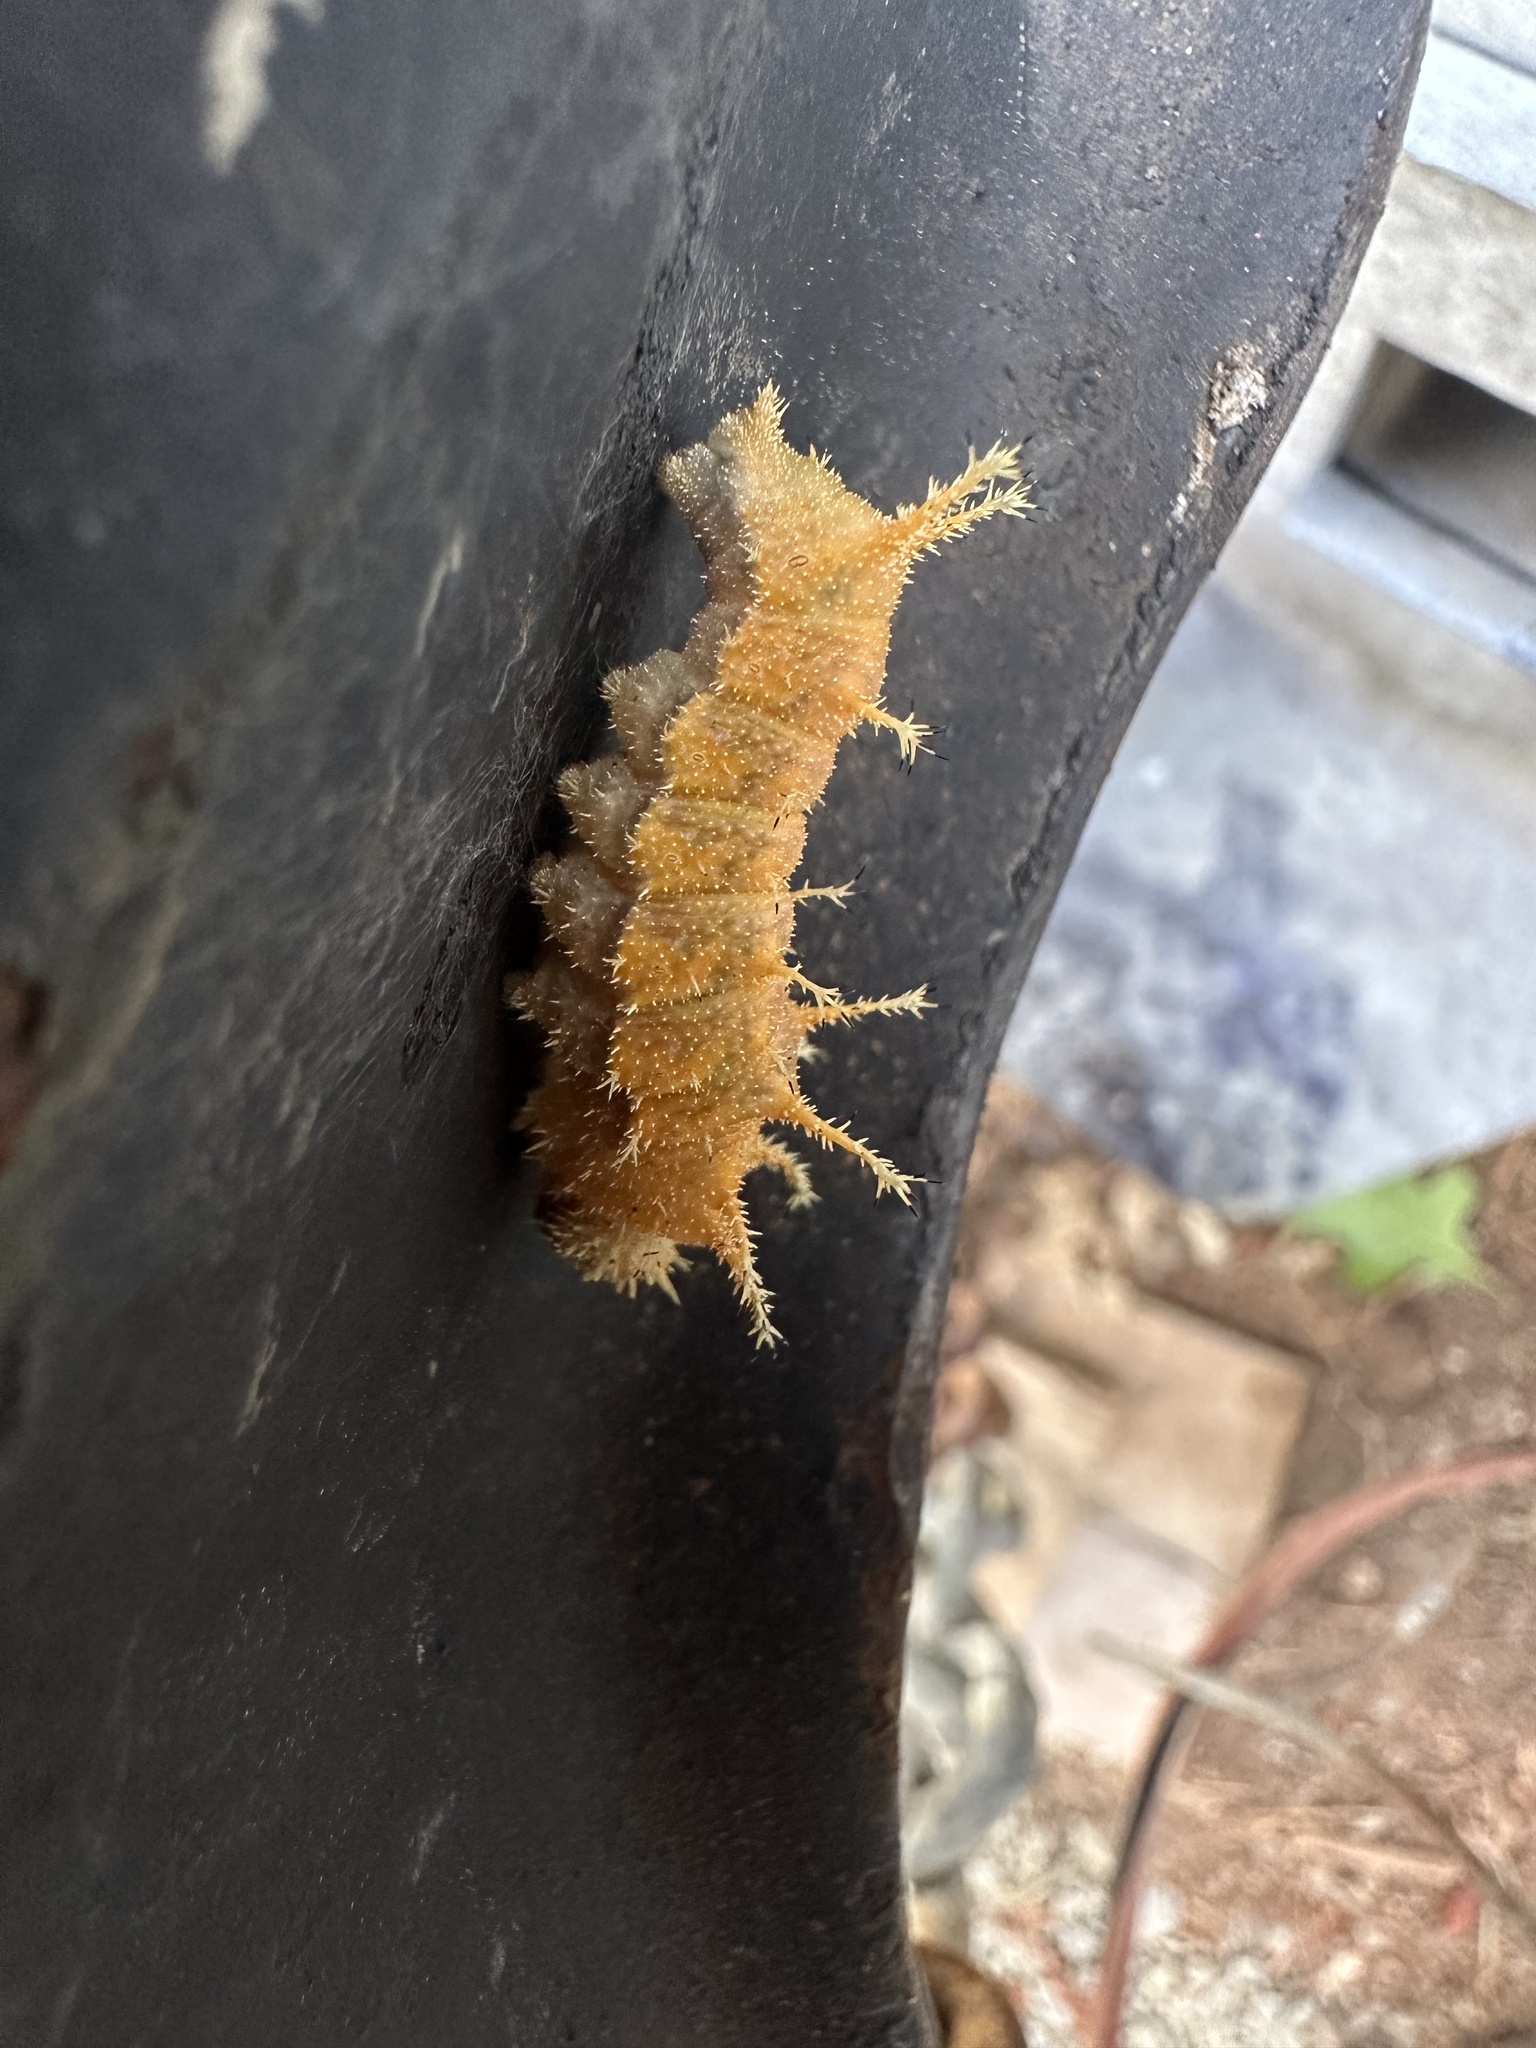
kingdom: Animalia
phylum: Arthropoda
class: Insecta
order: Lepidoptera
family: Nymphalidae
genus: Limenitis
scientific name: Limenitis bredowii
